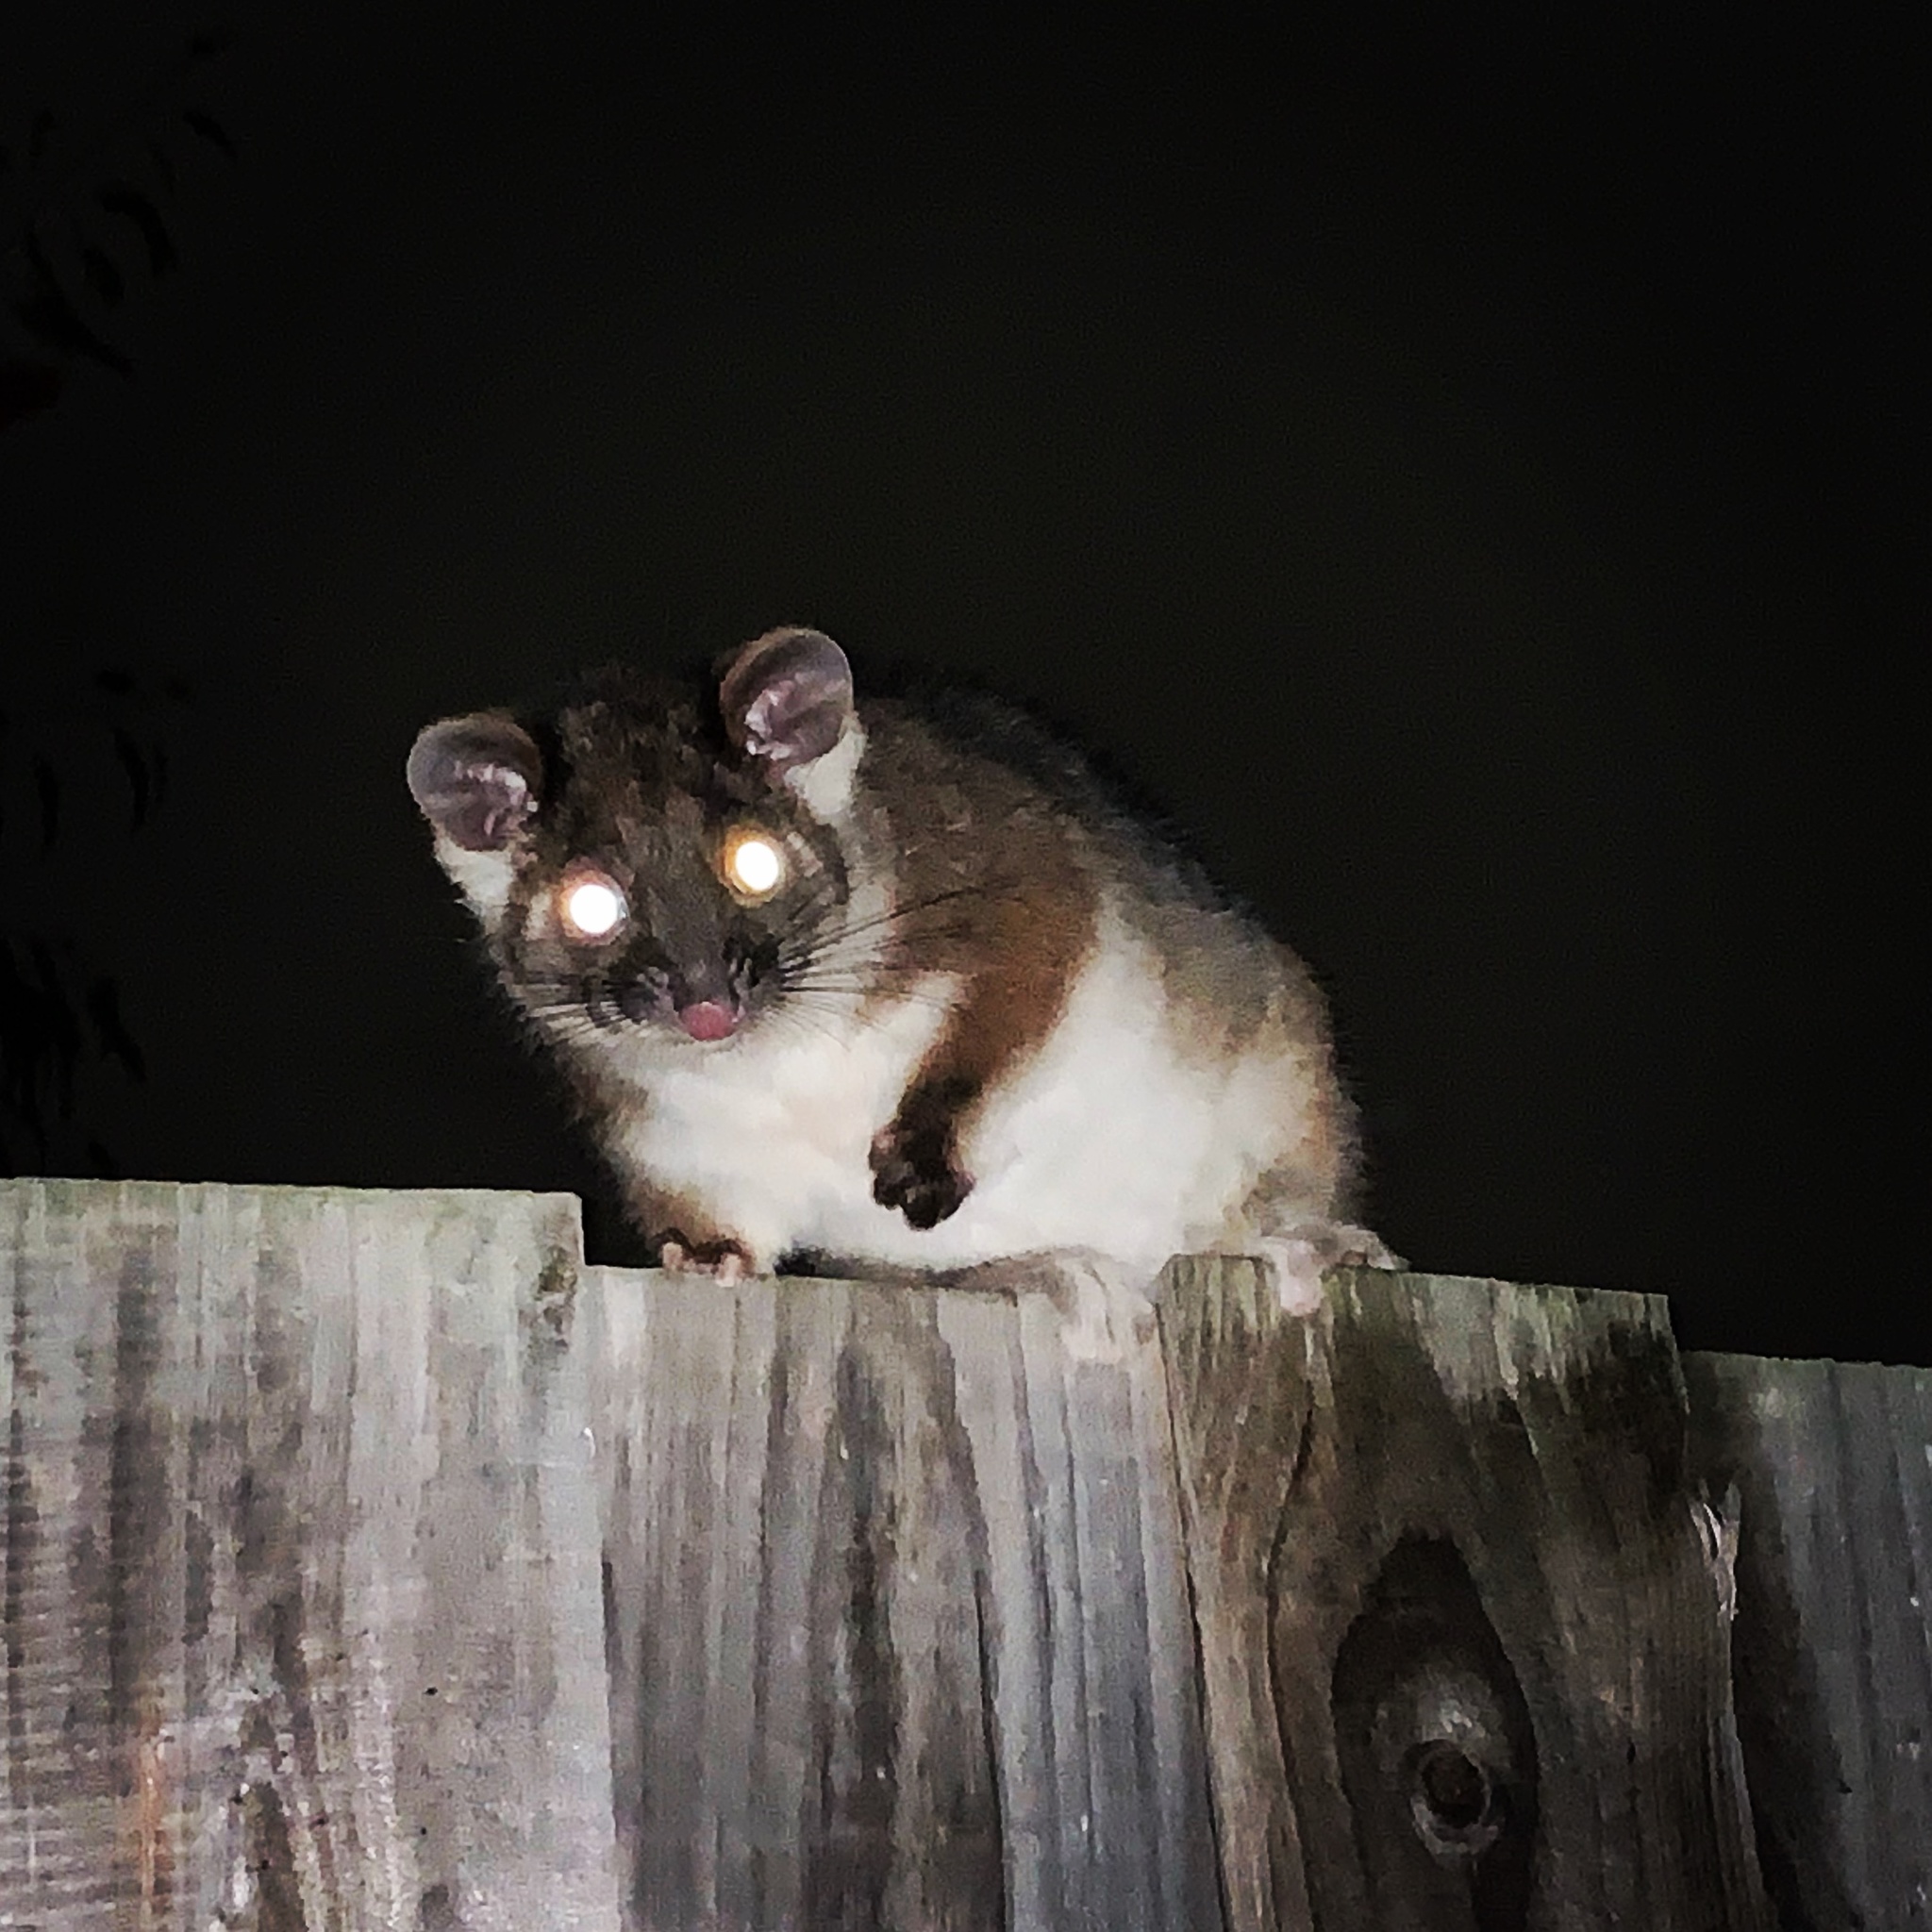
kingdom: Animalia
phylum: Chordata
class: Mammalia
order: Diprotodontia
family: Pseudocheiridae
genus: Pseudocheirus
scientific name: Pseudocheirus peregrinus
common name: Common ringtail possum
